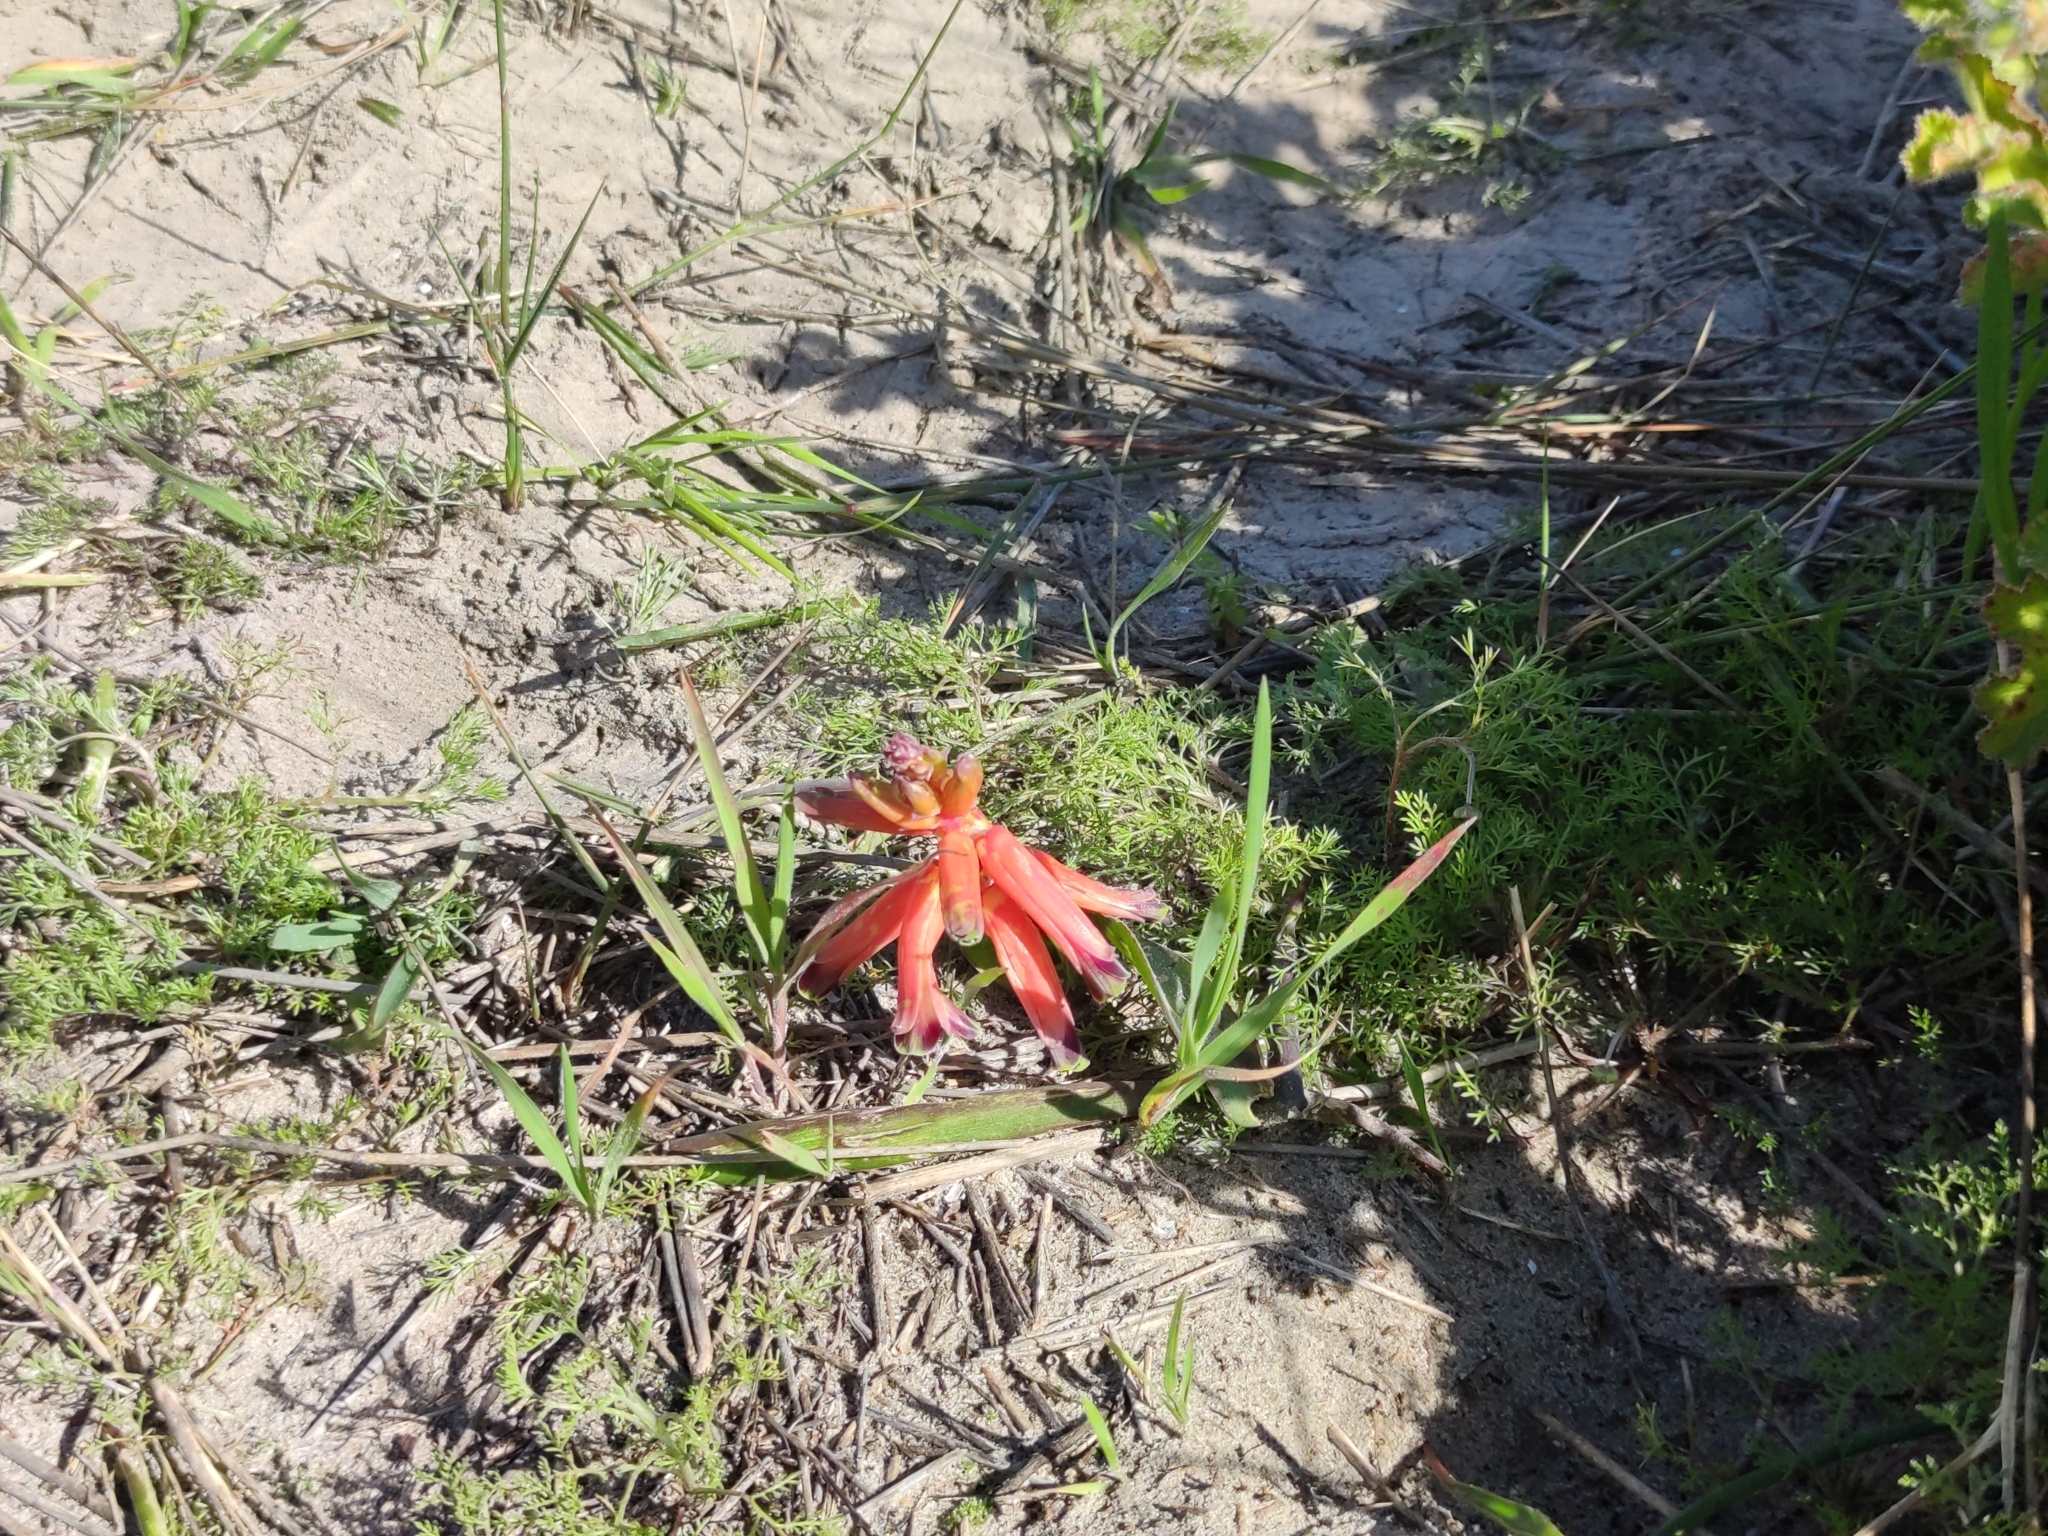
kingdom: Plantae
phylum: Tracheophyta
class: Liliopsida
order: Asparagales
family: Asparagaceae
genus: Lachenalia
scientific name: Lachenalia bulbifera
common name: Red lachenalia
